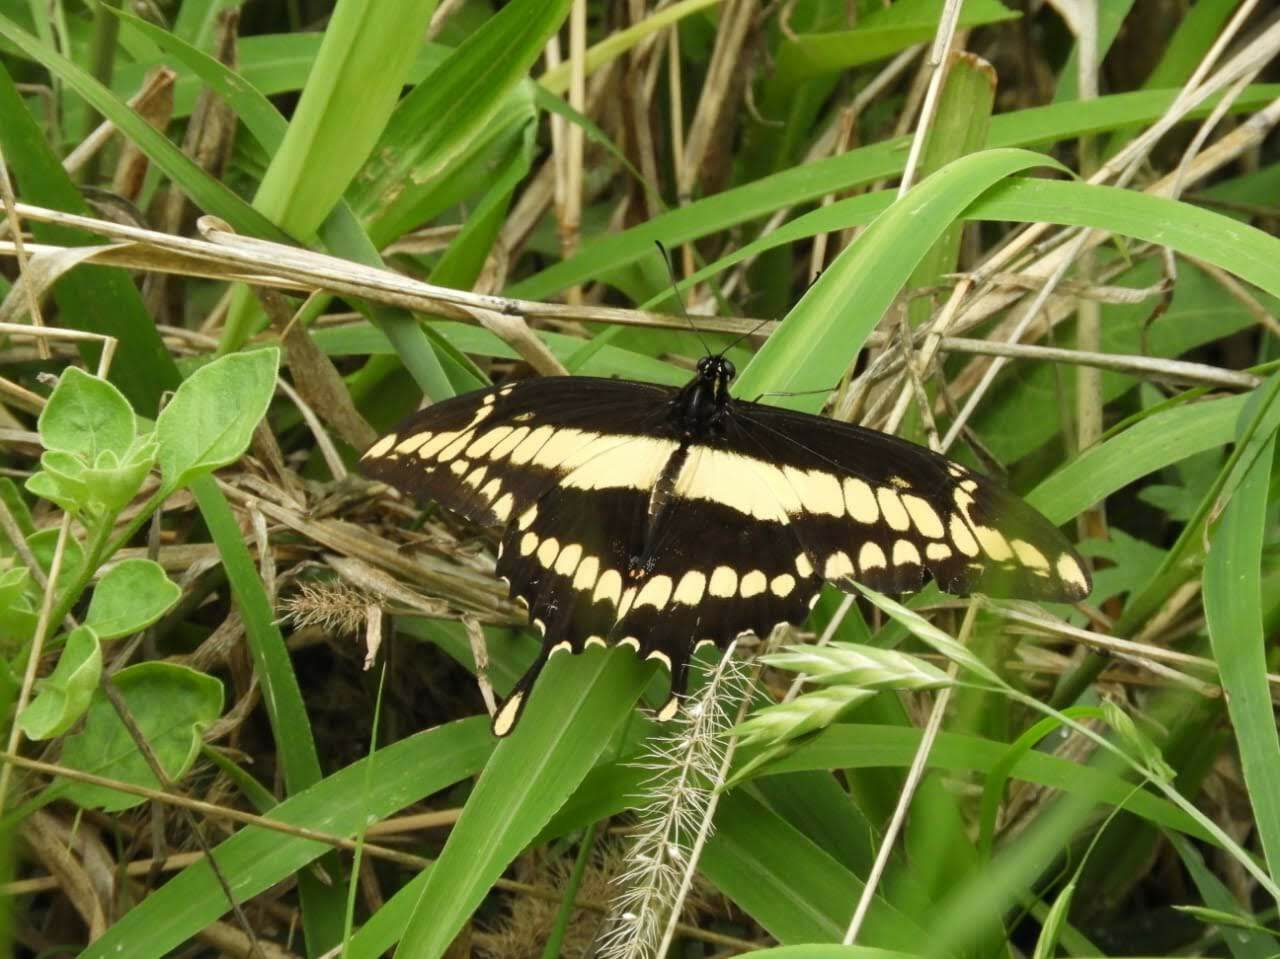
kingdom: Animalia
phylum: Arthropoda
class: Insecta
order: Lepidoptera
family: Papilionidae
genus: Papilio
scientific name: Papilio thoas
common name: King swallowtail
